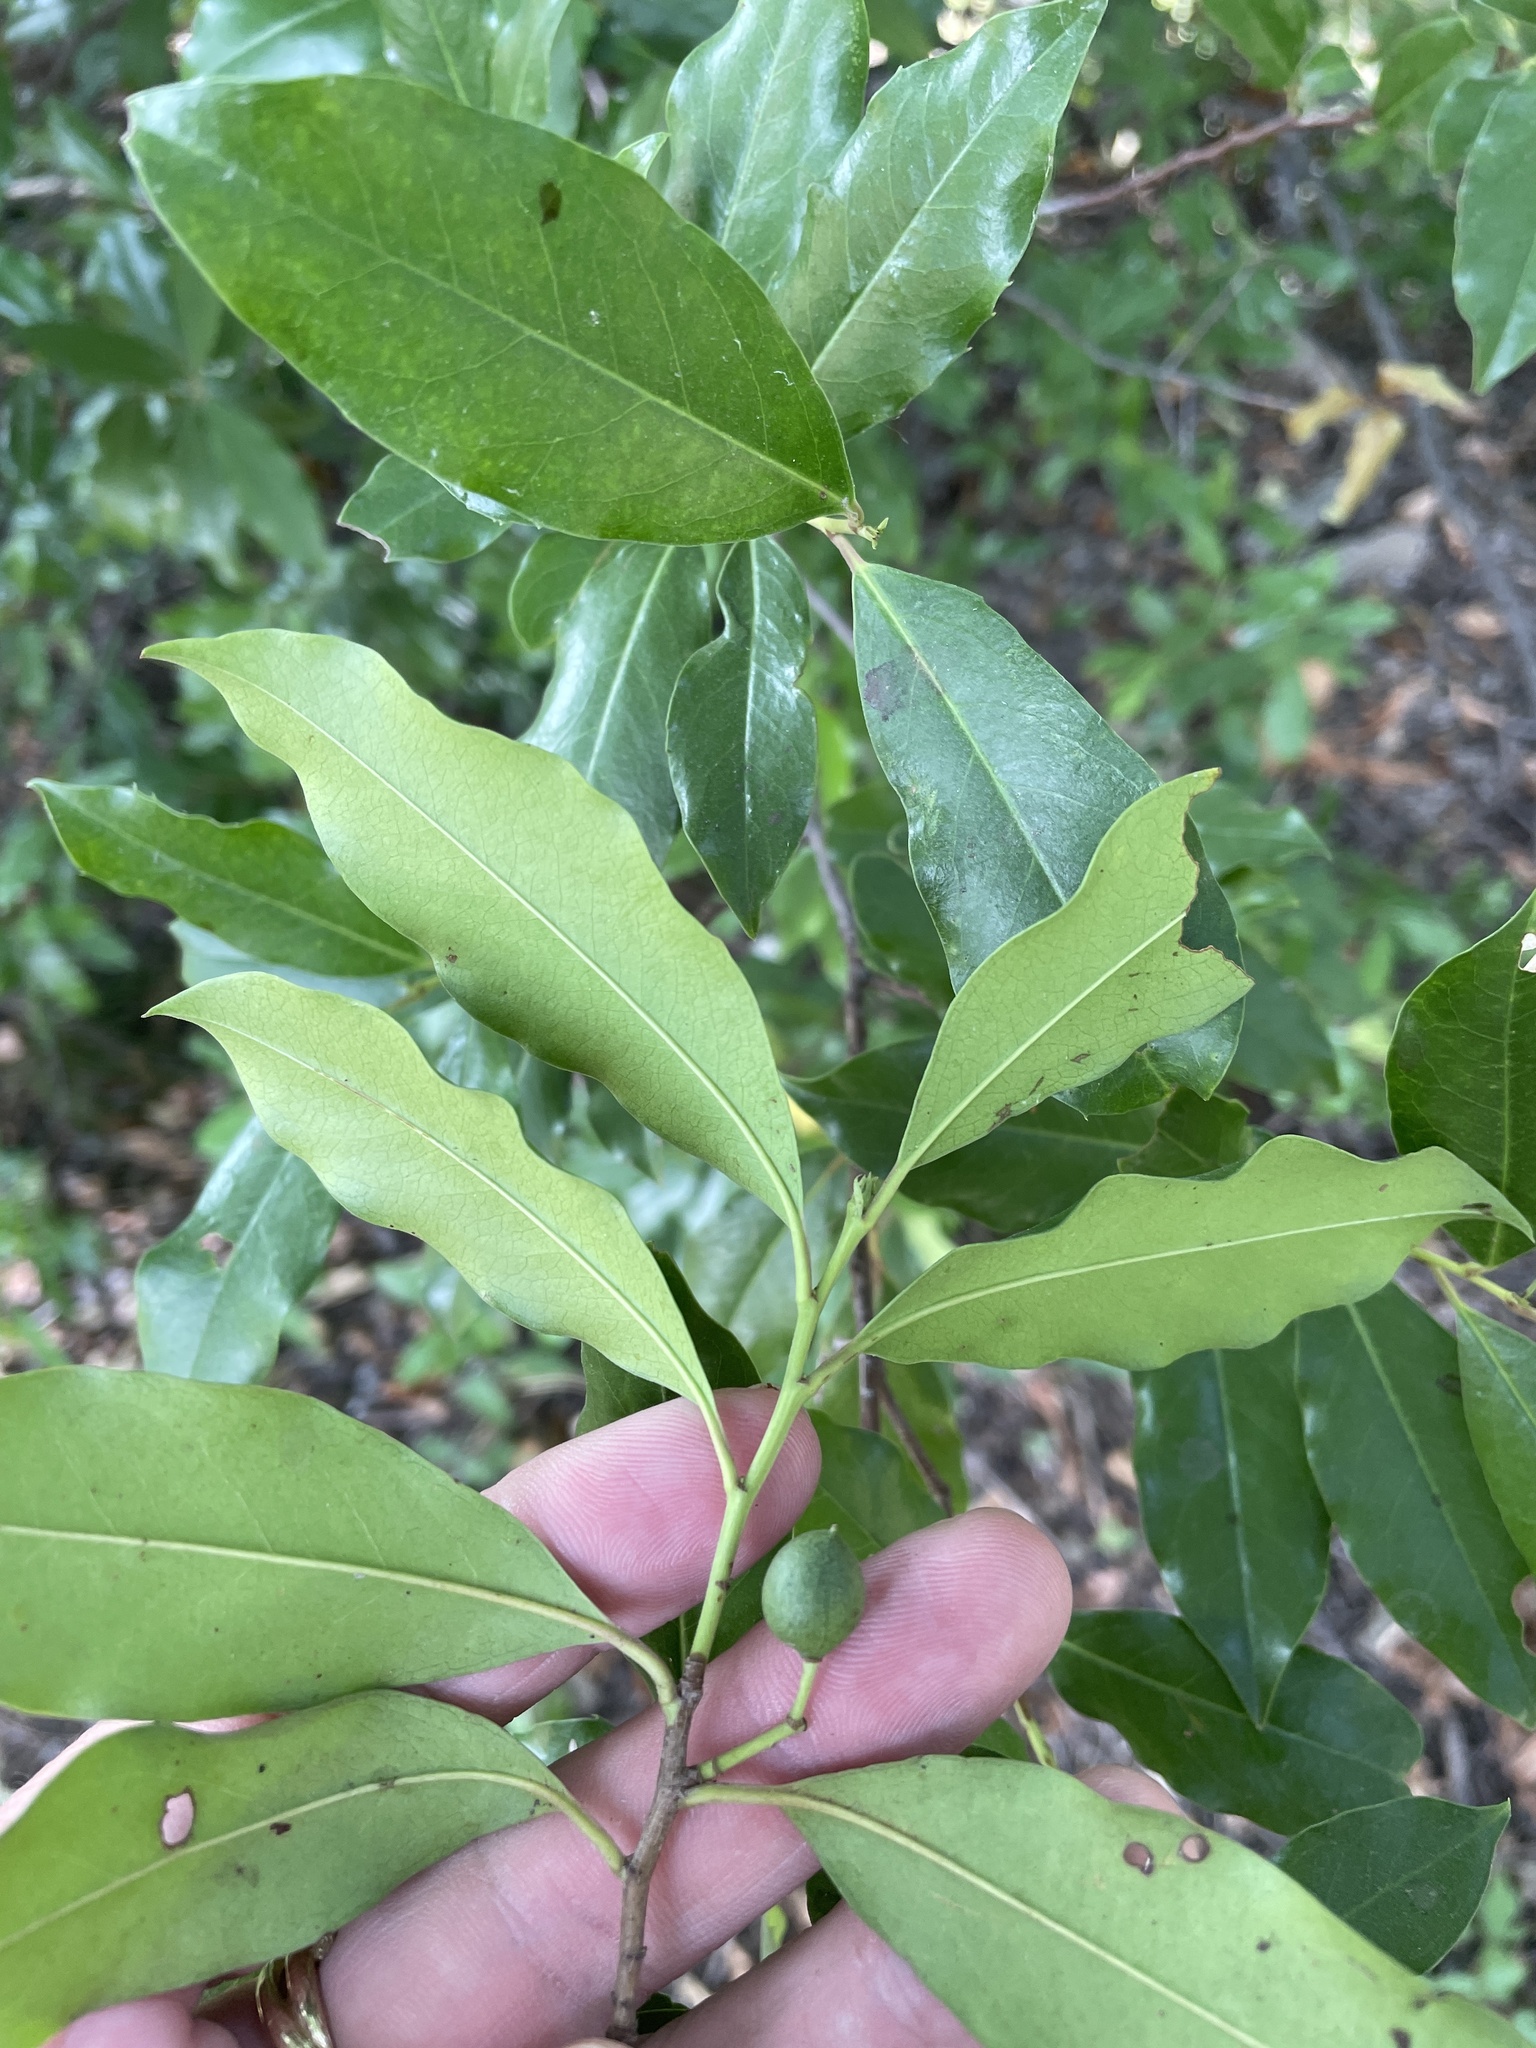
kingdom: Plantae
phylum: Tracheophyta
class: Magnoliopsida
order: Rosales
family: Rosaceae
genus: Prunus
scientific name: Prunus caroliniana
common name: Carolina laurel cherry
